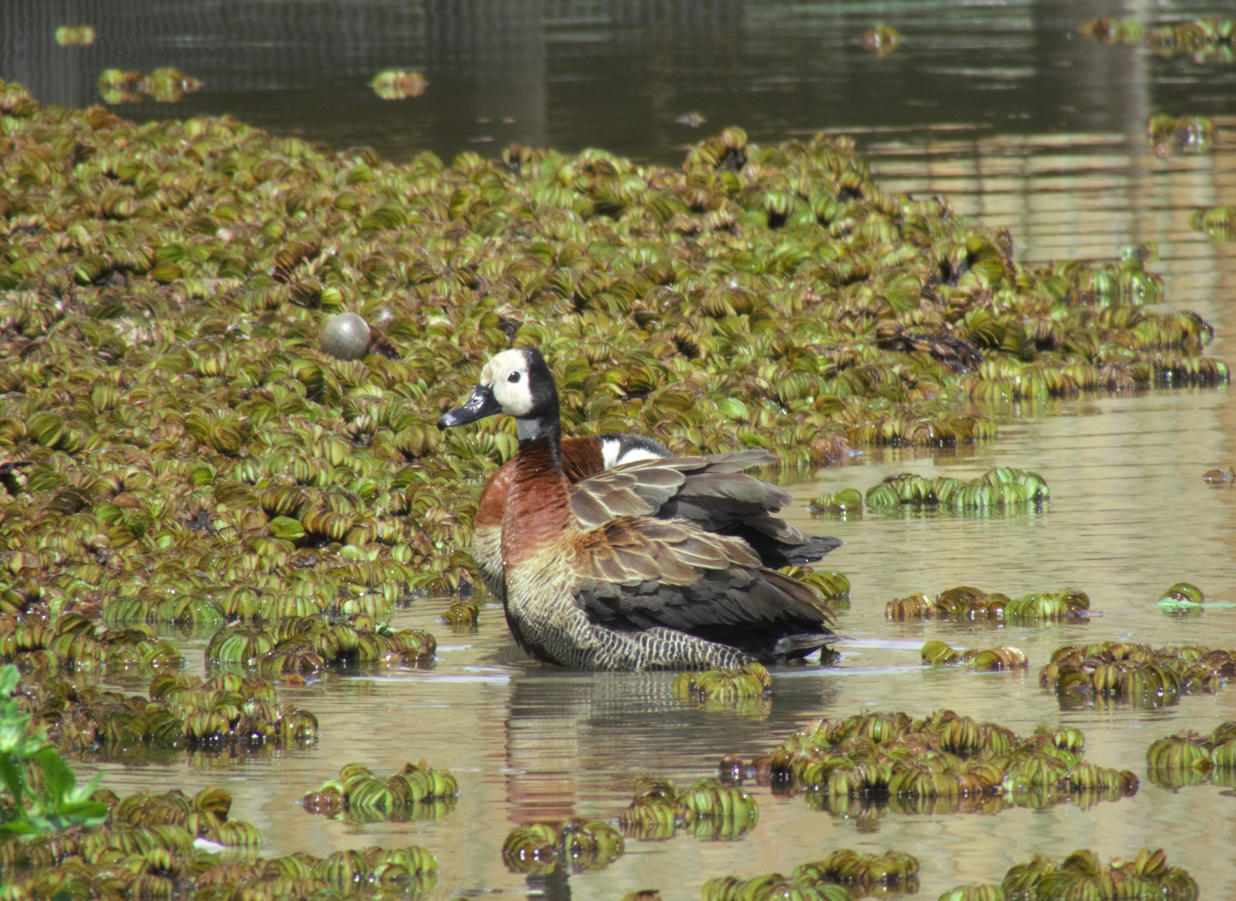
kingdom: Animalia
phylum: Chordata
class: Aves
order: Anseriformes
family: Anatidae
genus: Dendrocygna
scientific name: Dendrocygna viduata
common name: White-faced whistling duck
